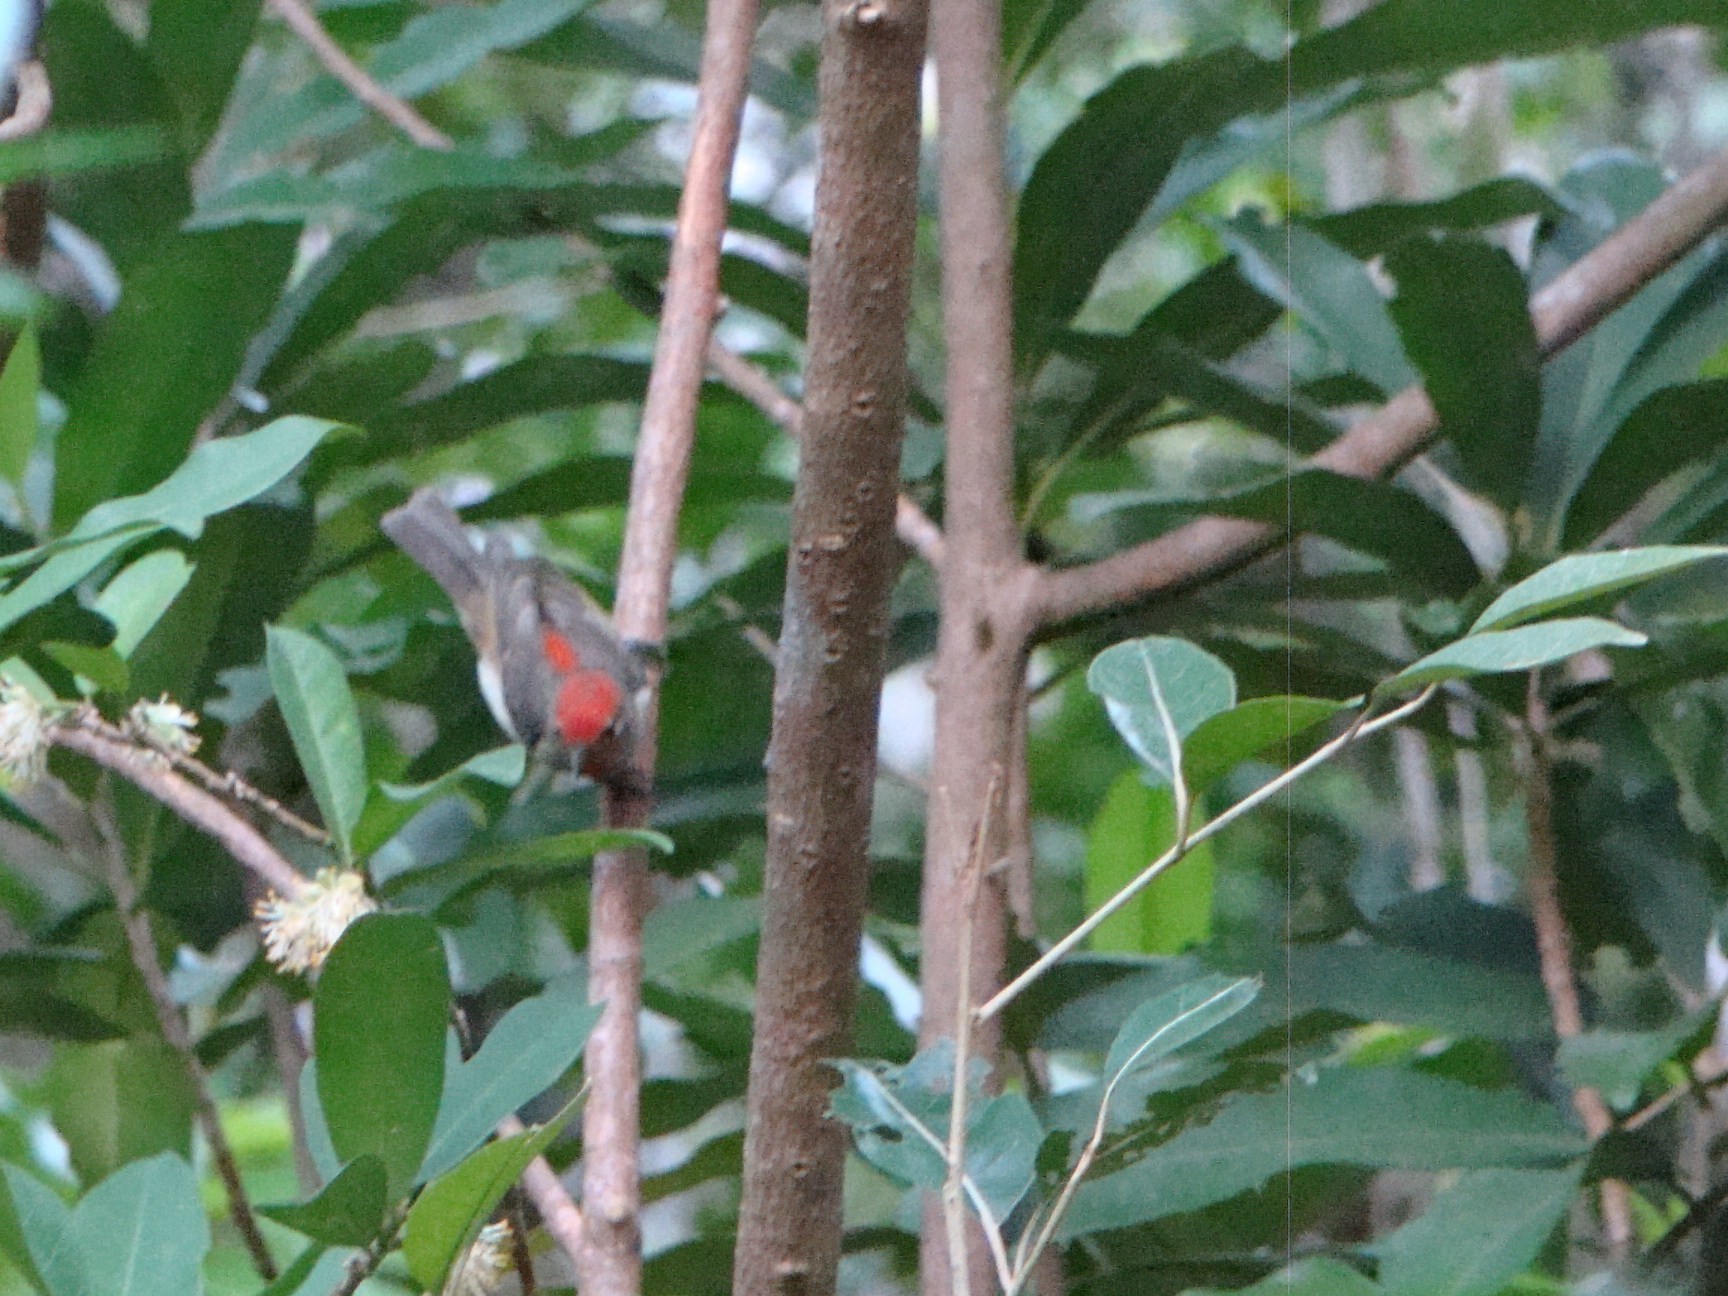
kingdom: Animalia
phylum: Chordata
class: Aves
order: Passeriformes
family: Meliphagidae
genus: Myzomela
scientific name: Myzomela cardinalis
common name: Cardinal myzomela
